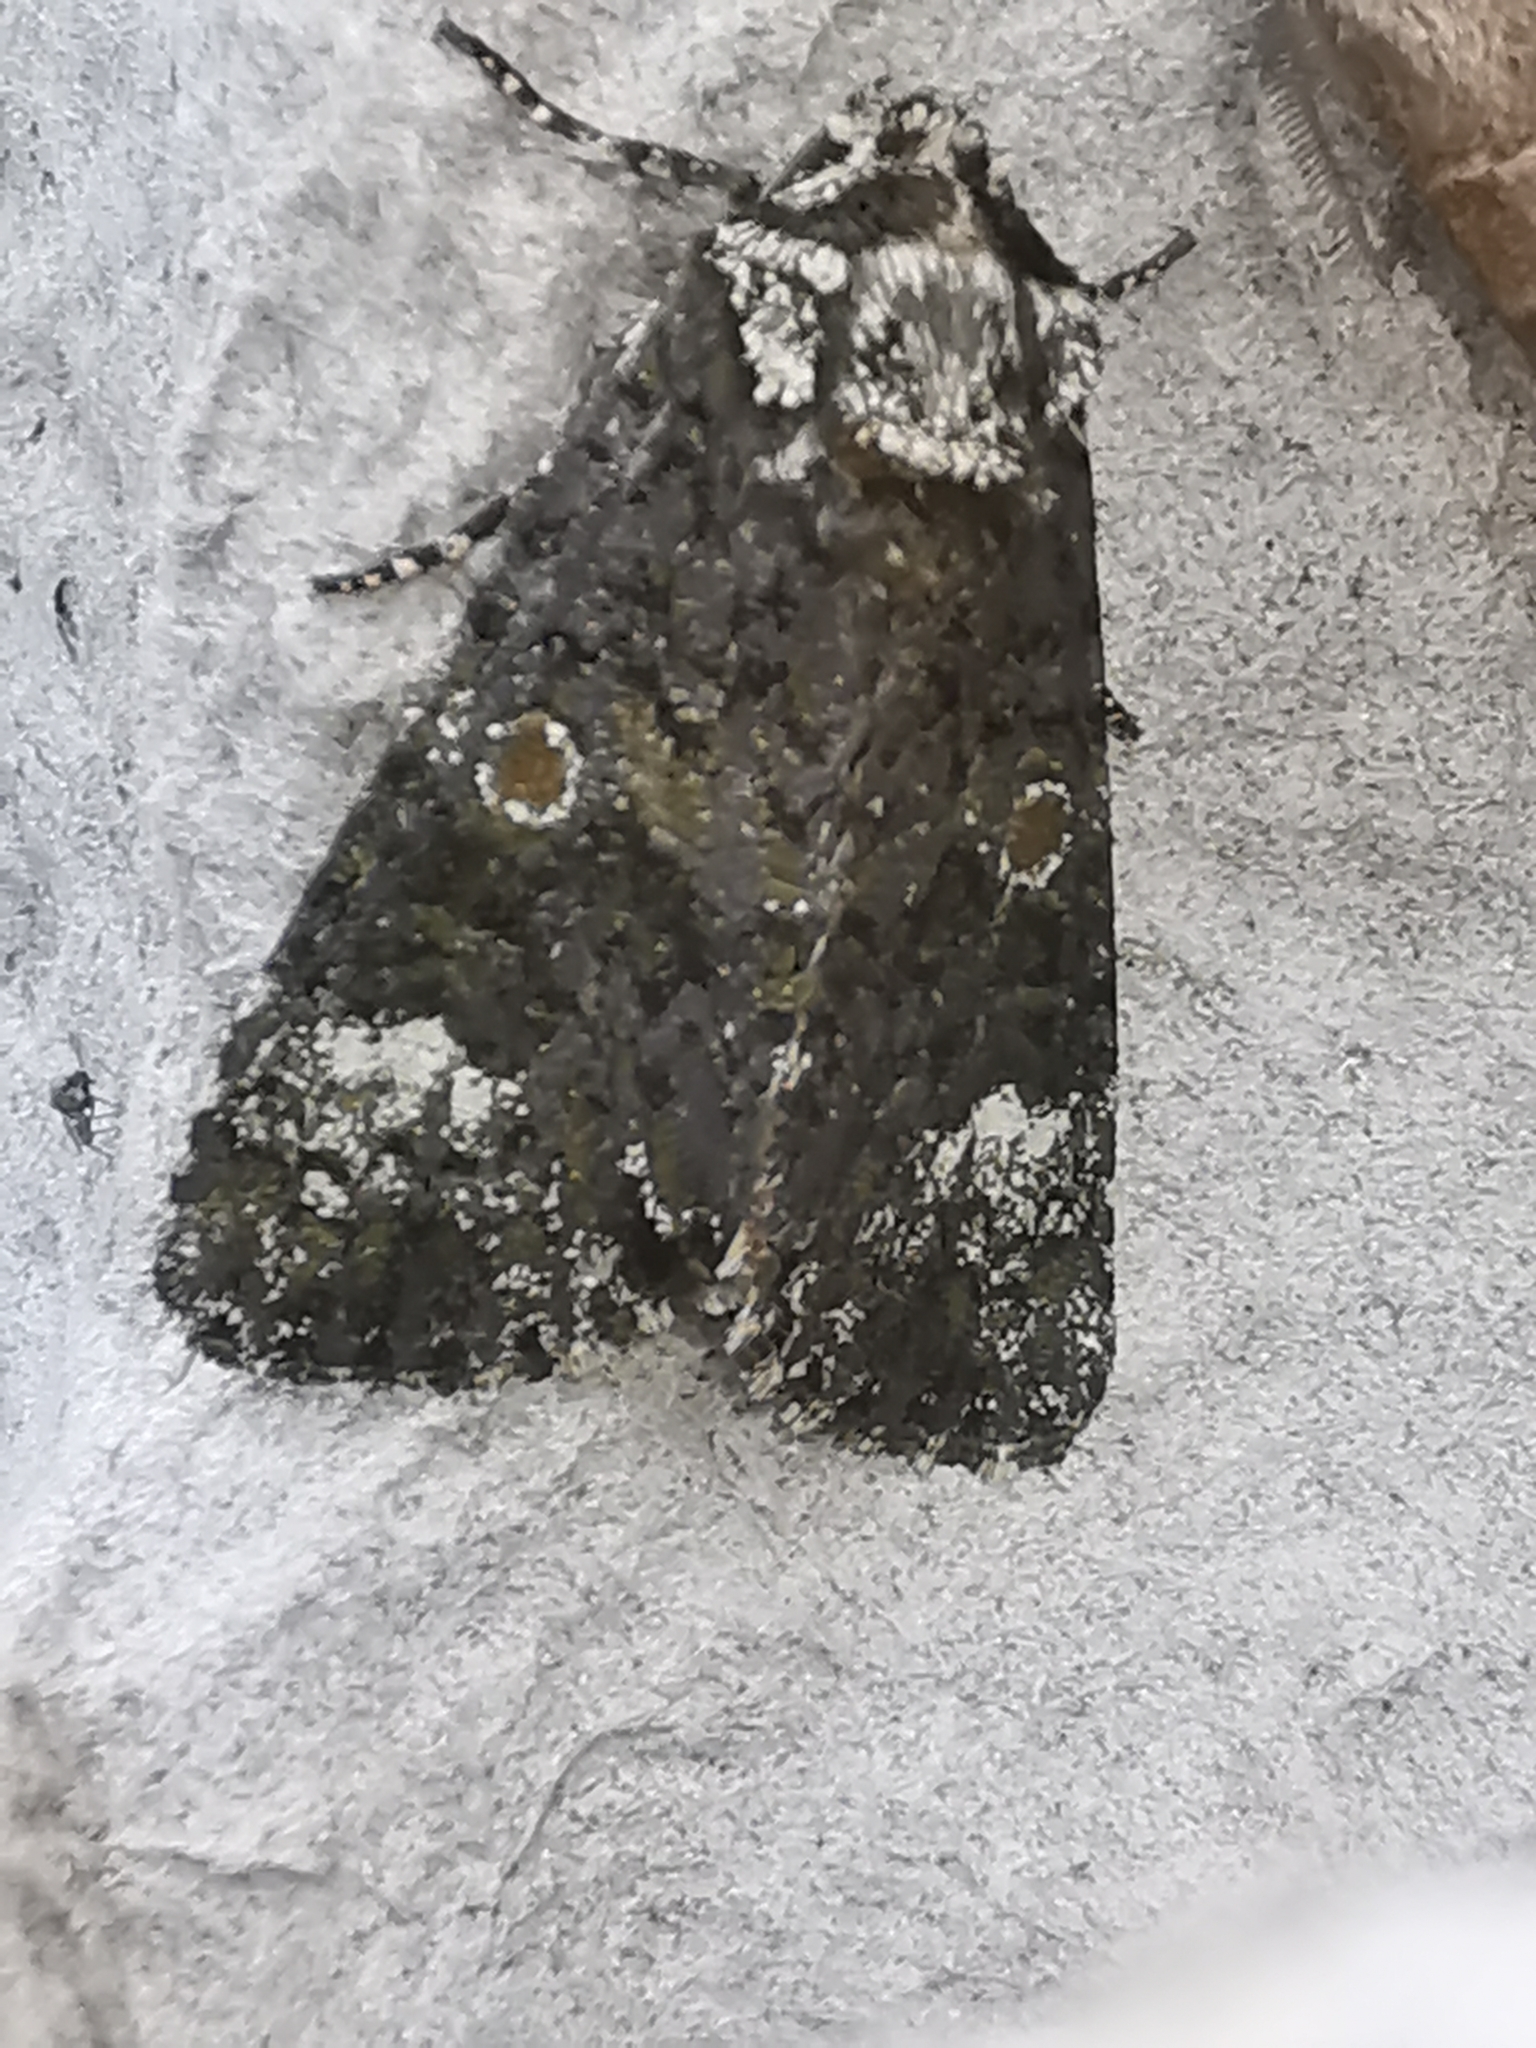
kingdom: Animalia
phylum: Arthropoda
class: Insecta
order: Lepidoptera
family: Noctuidae
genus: Craniophora
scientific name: Craniophora ligustri
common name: Coronet
